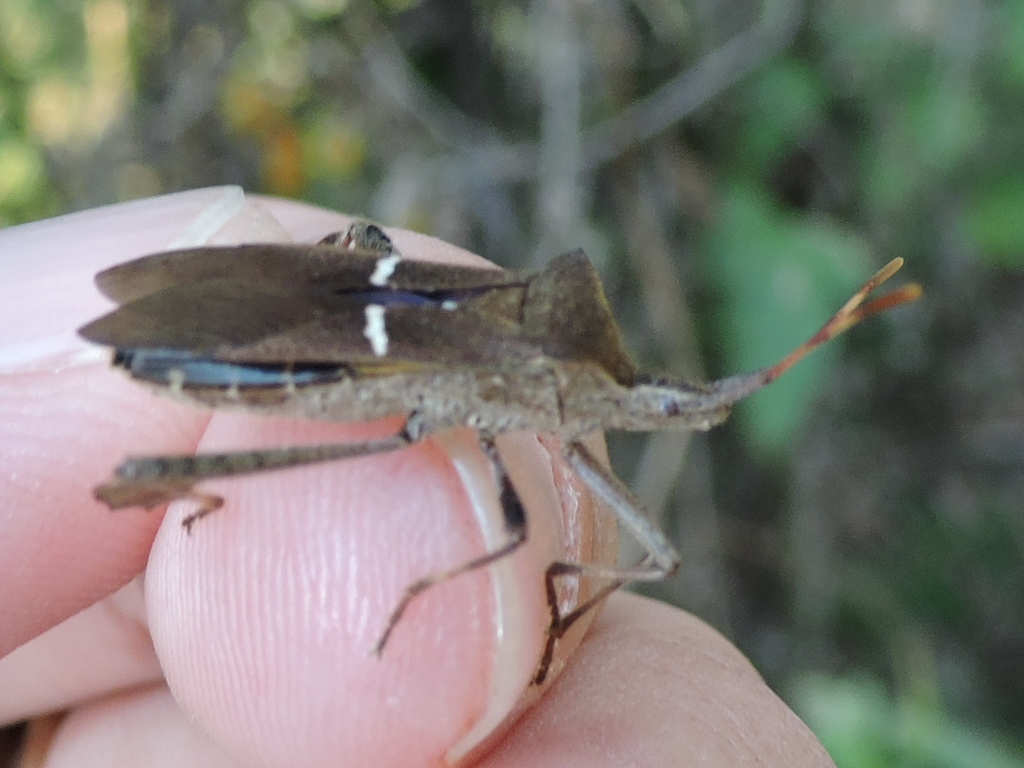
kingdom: Animalia
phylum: Arthropoda
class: Insecta
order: Hemiptera
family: Coreidae
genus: Leptoglossus
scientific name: Leptoglossus phyllopus
